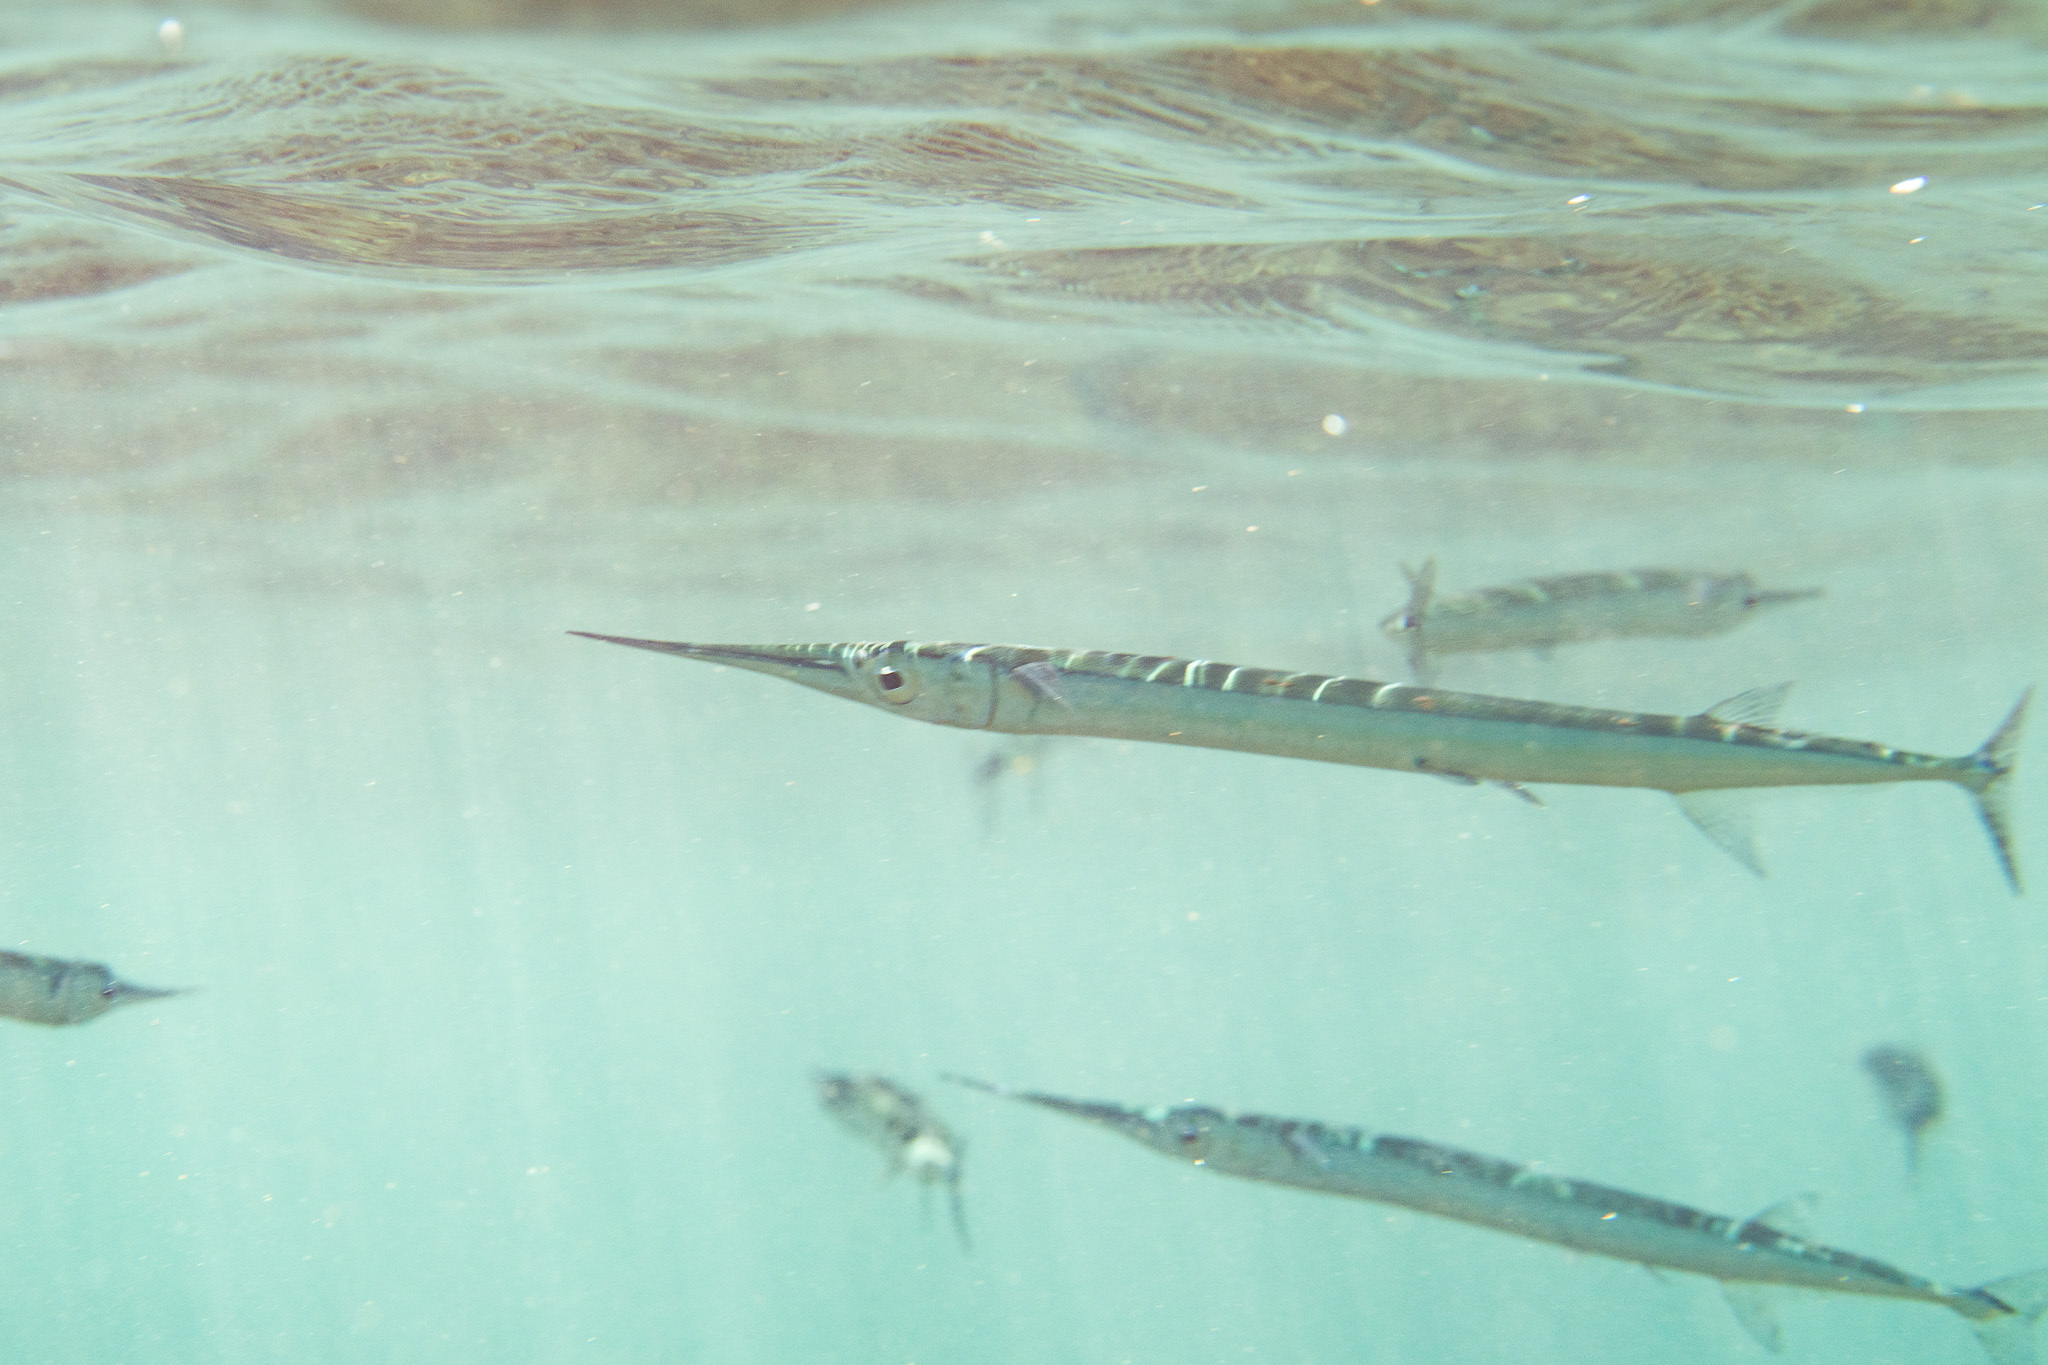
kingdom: Animalia
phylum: Chordata
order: Beloniformes
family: Belonidae
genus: Platybelone
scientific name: Platybelone argalus
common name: Keeltail needlefish
